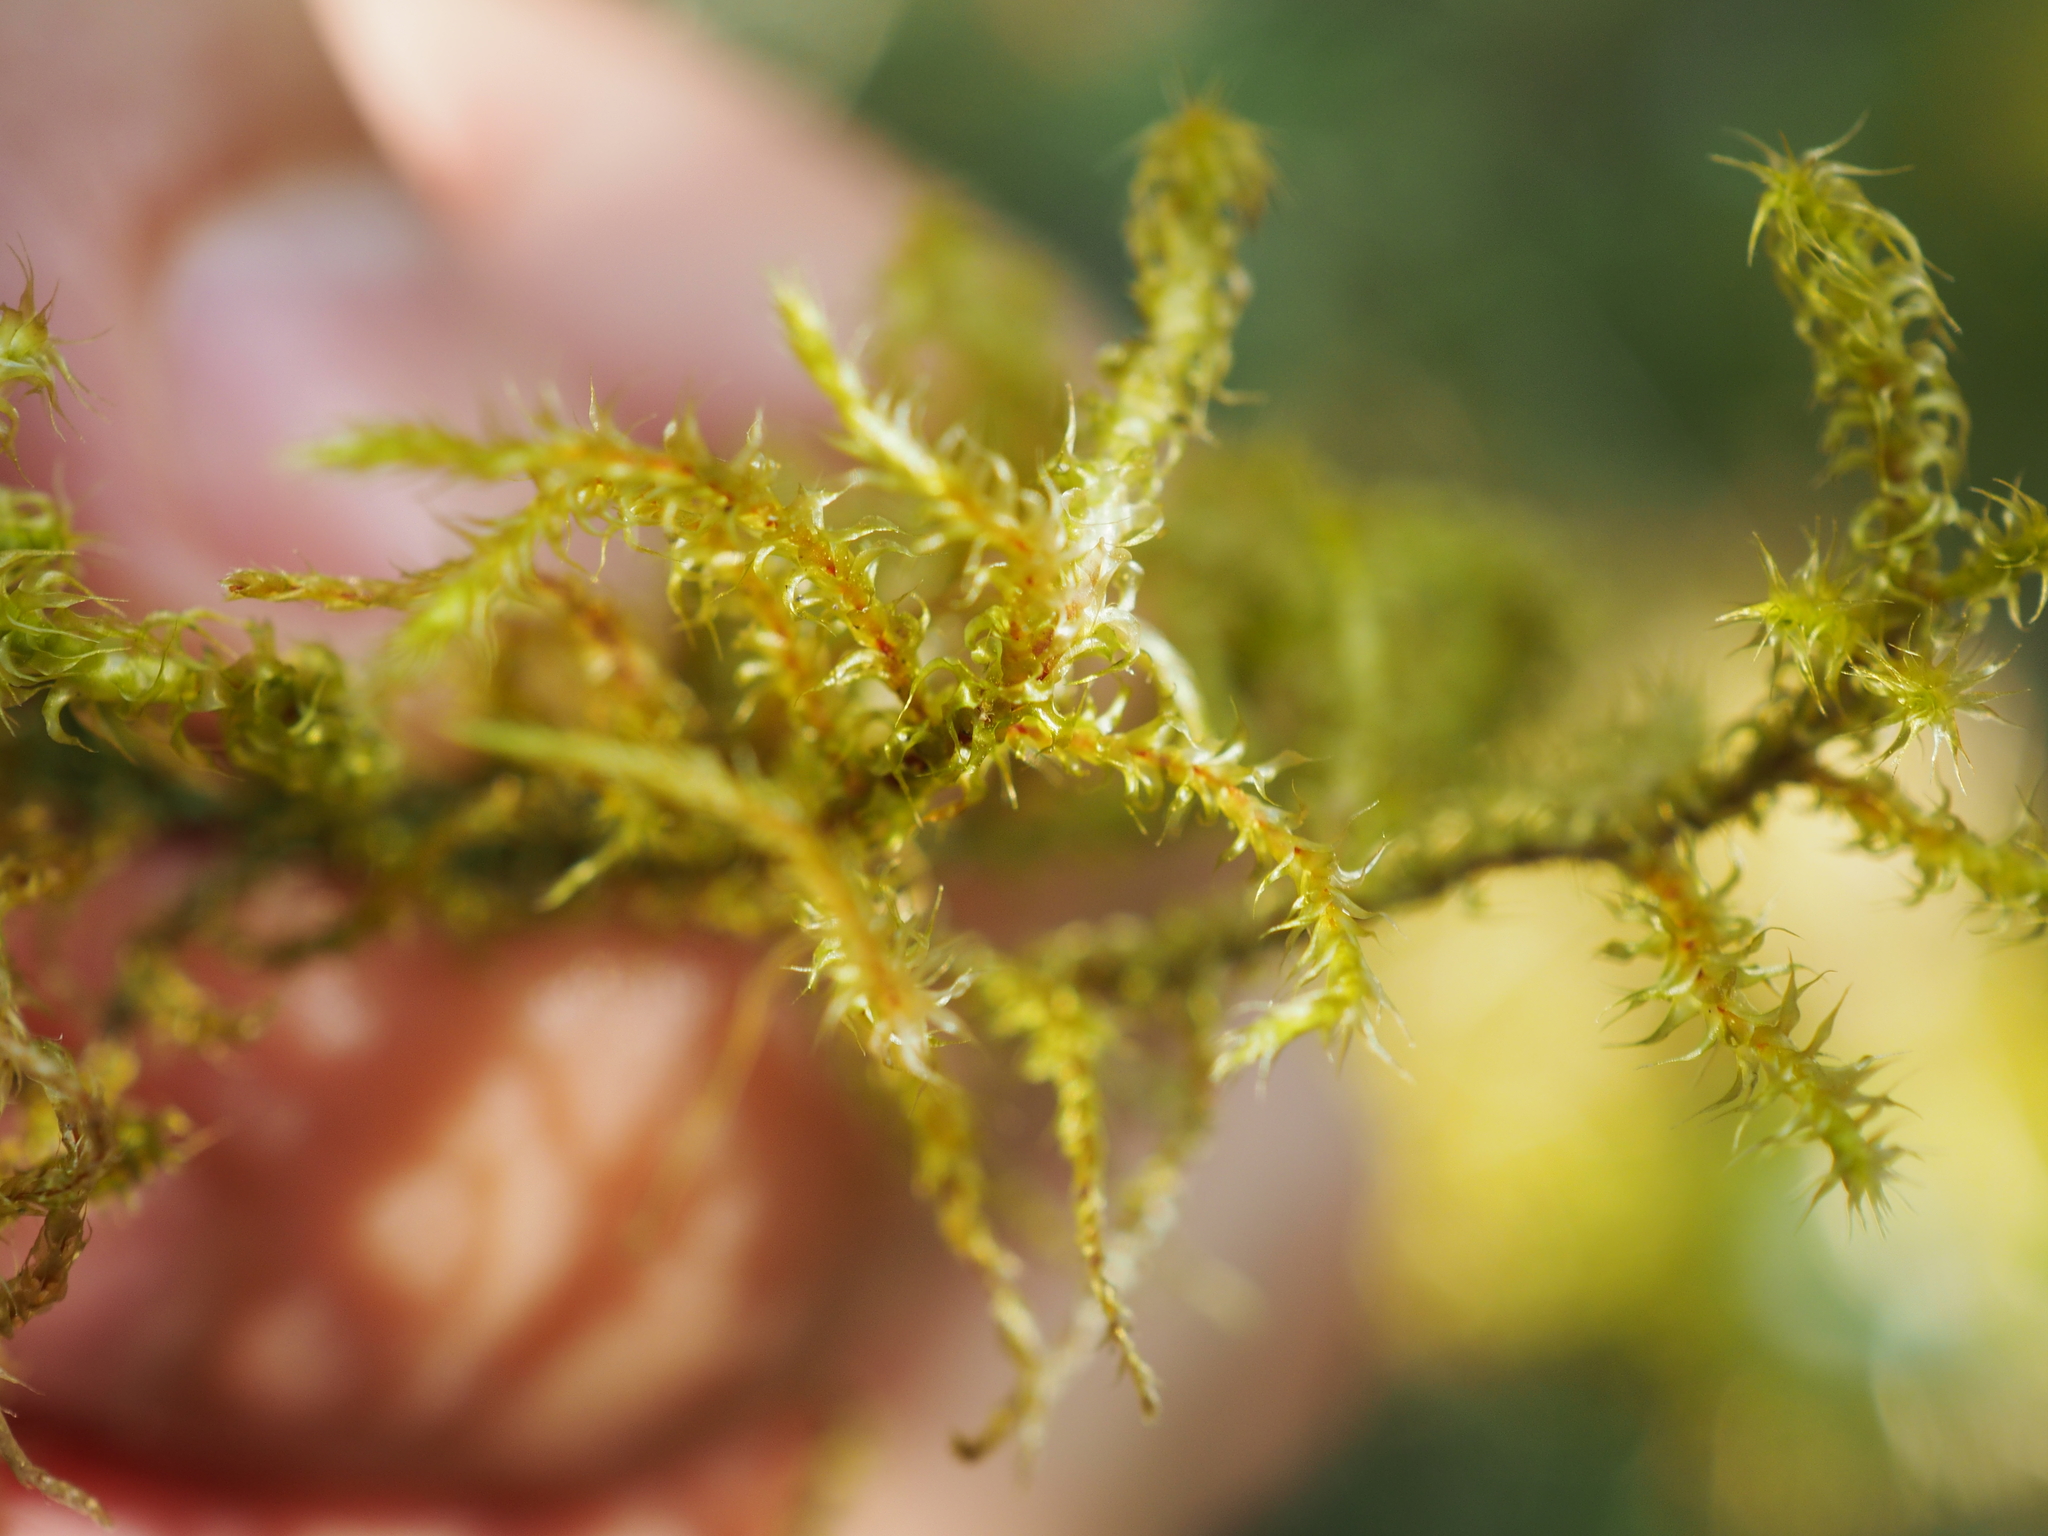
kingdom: Plantae
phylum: Bryophyta
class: Bryopsida
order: Hypnales
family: Hylocomiaceae
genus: Rhytidiadelphus
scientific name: Rhytidiadelphus squarrosus
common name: Springy turf-moss
